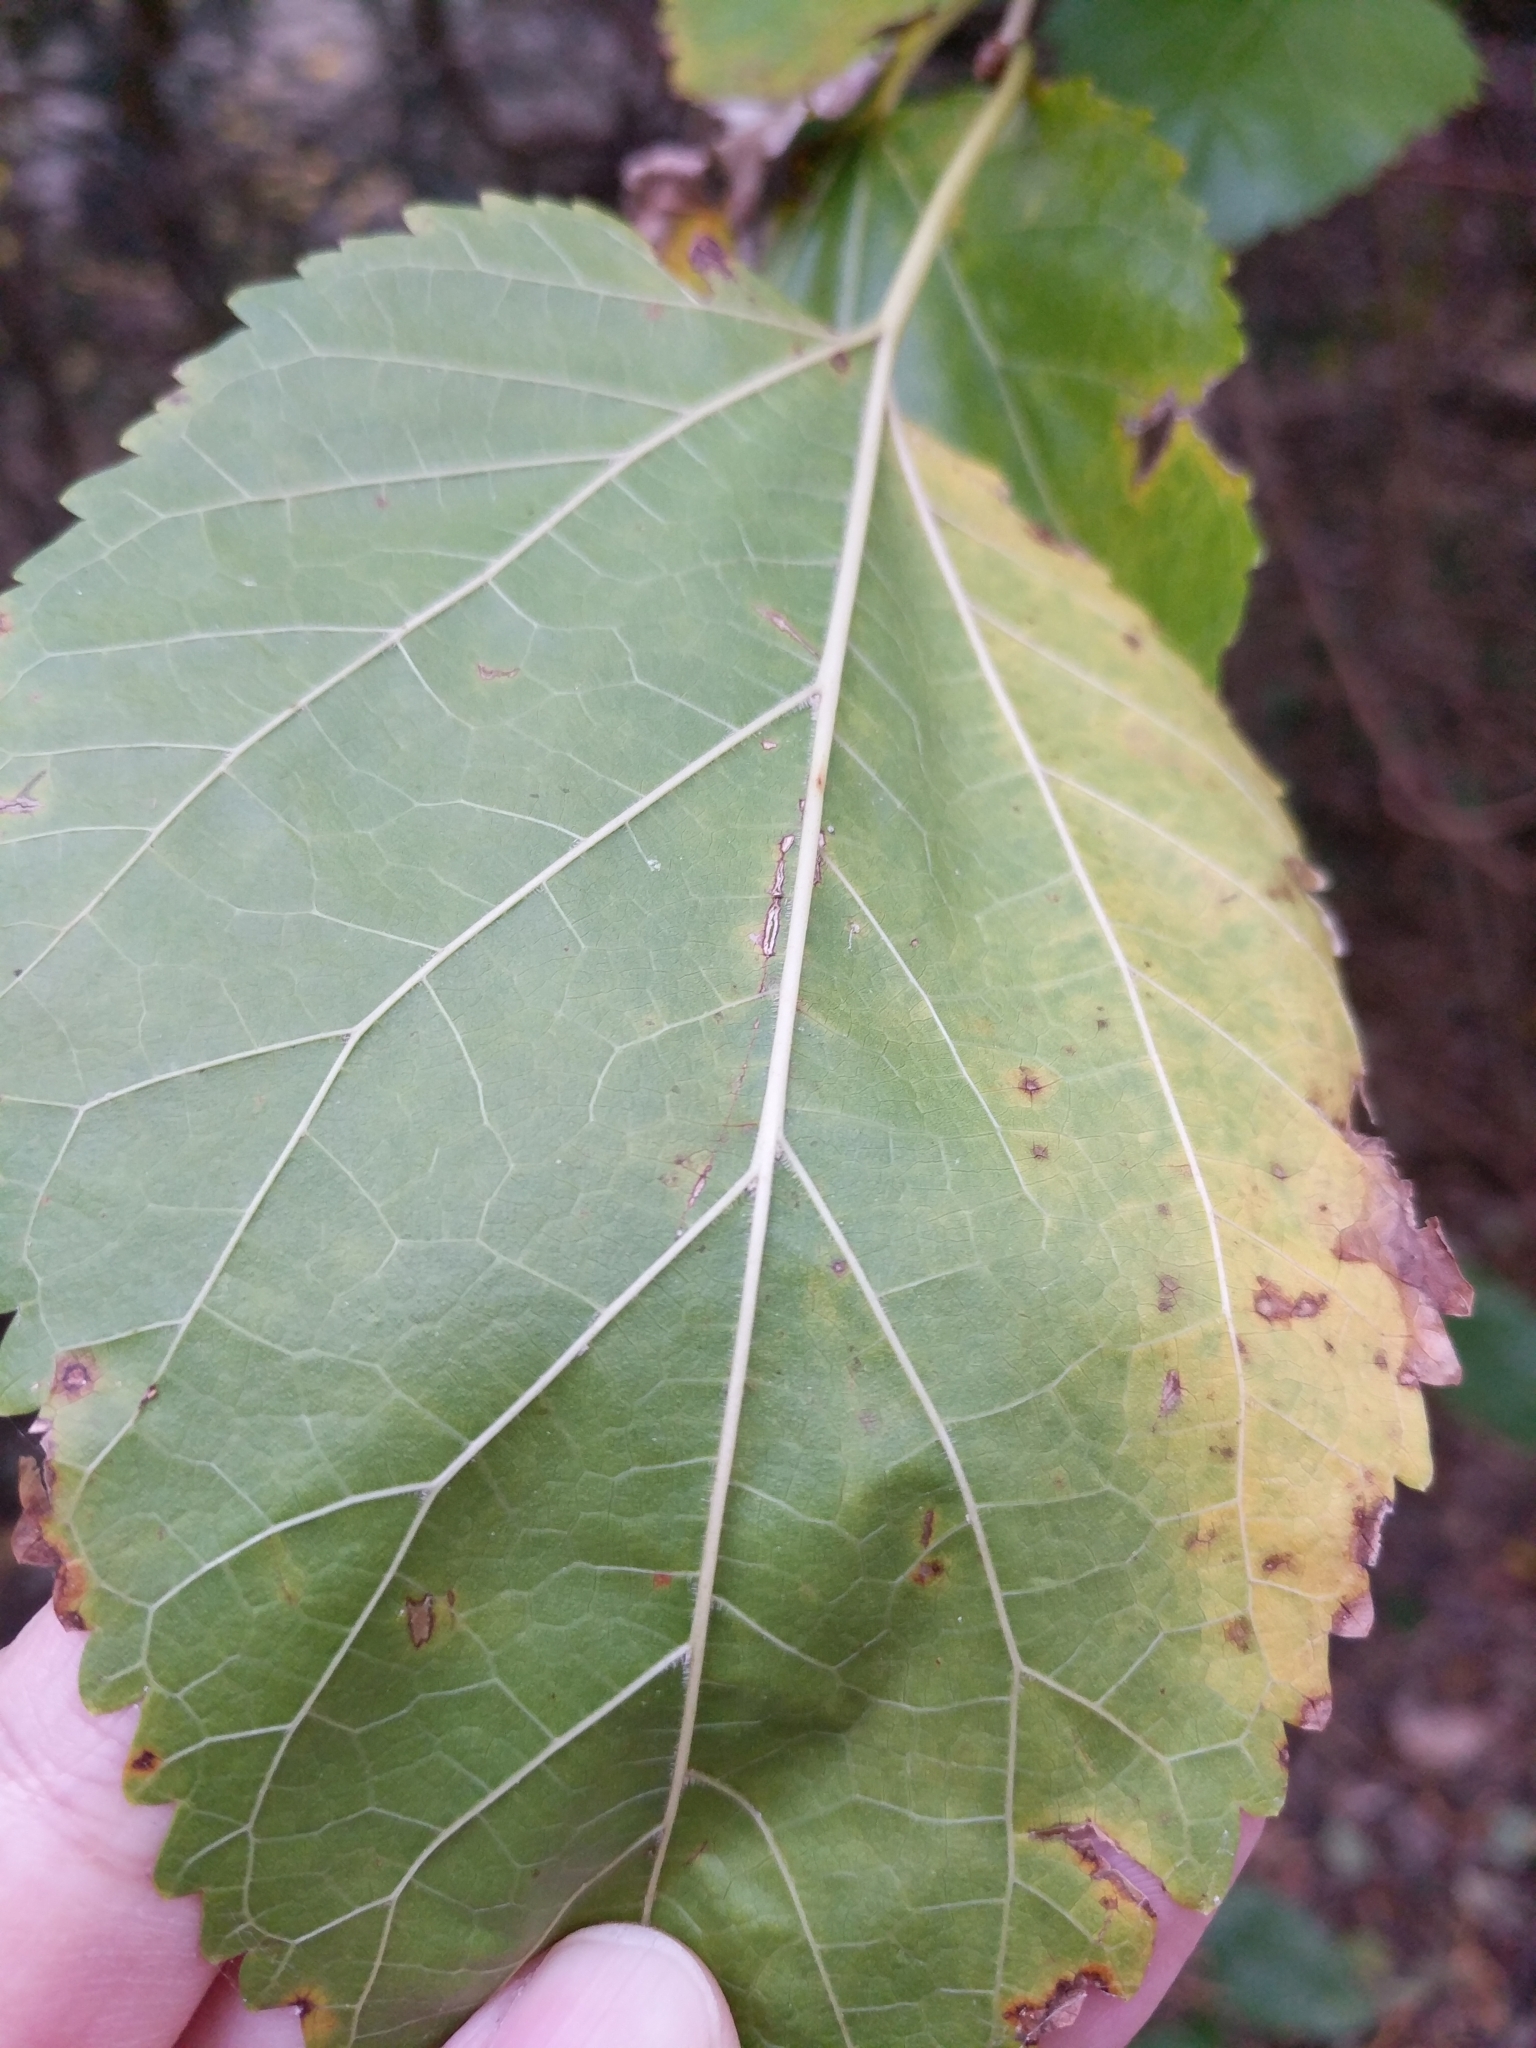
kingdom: Plantae
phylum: Tracheophyta
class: Magnoliopsida
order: Rosales
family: Moraceae
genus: Morus
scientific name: Morus rubra
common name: Red mulberry
